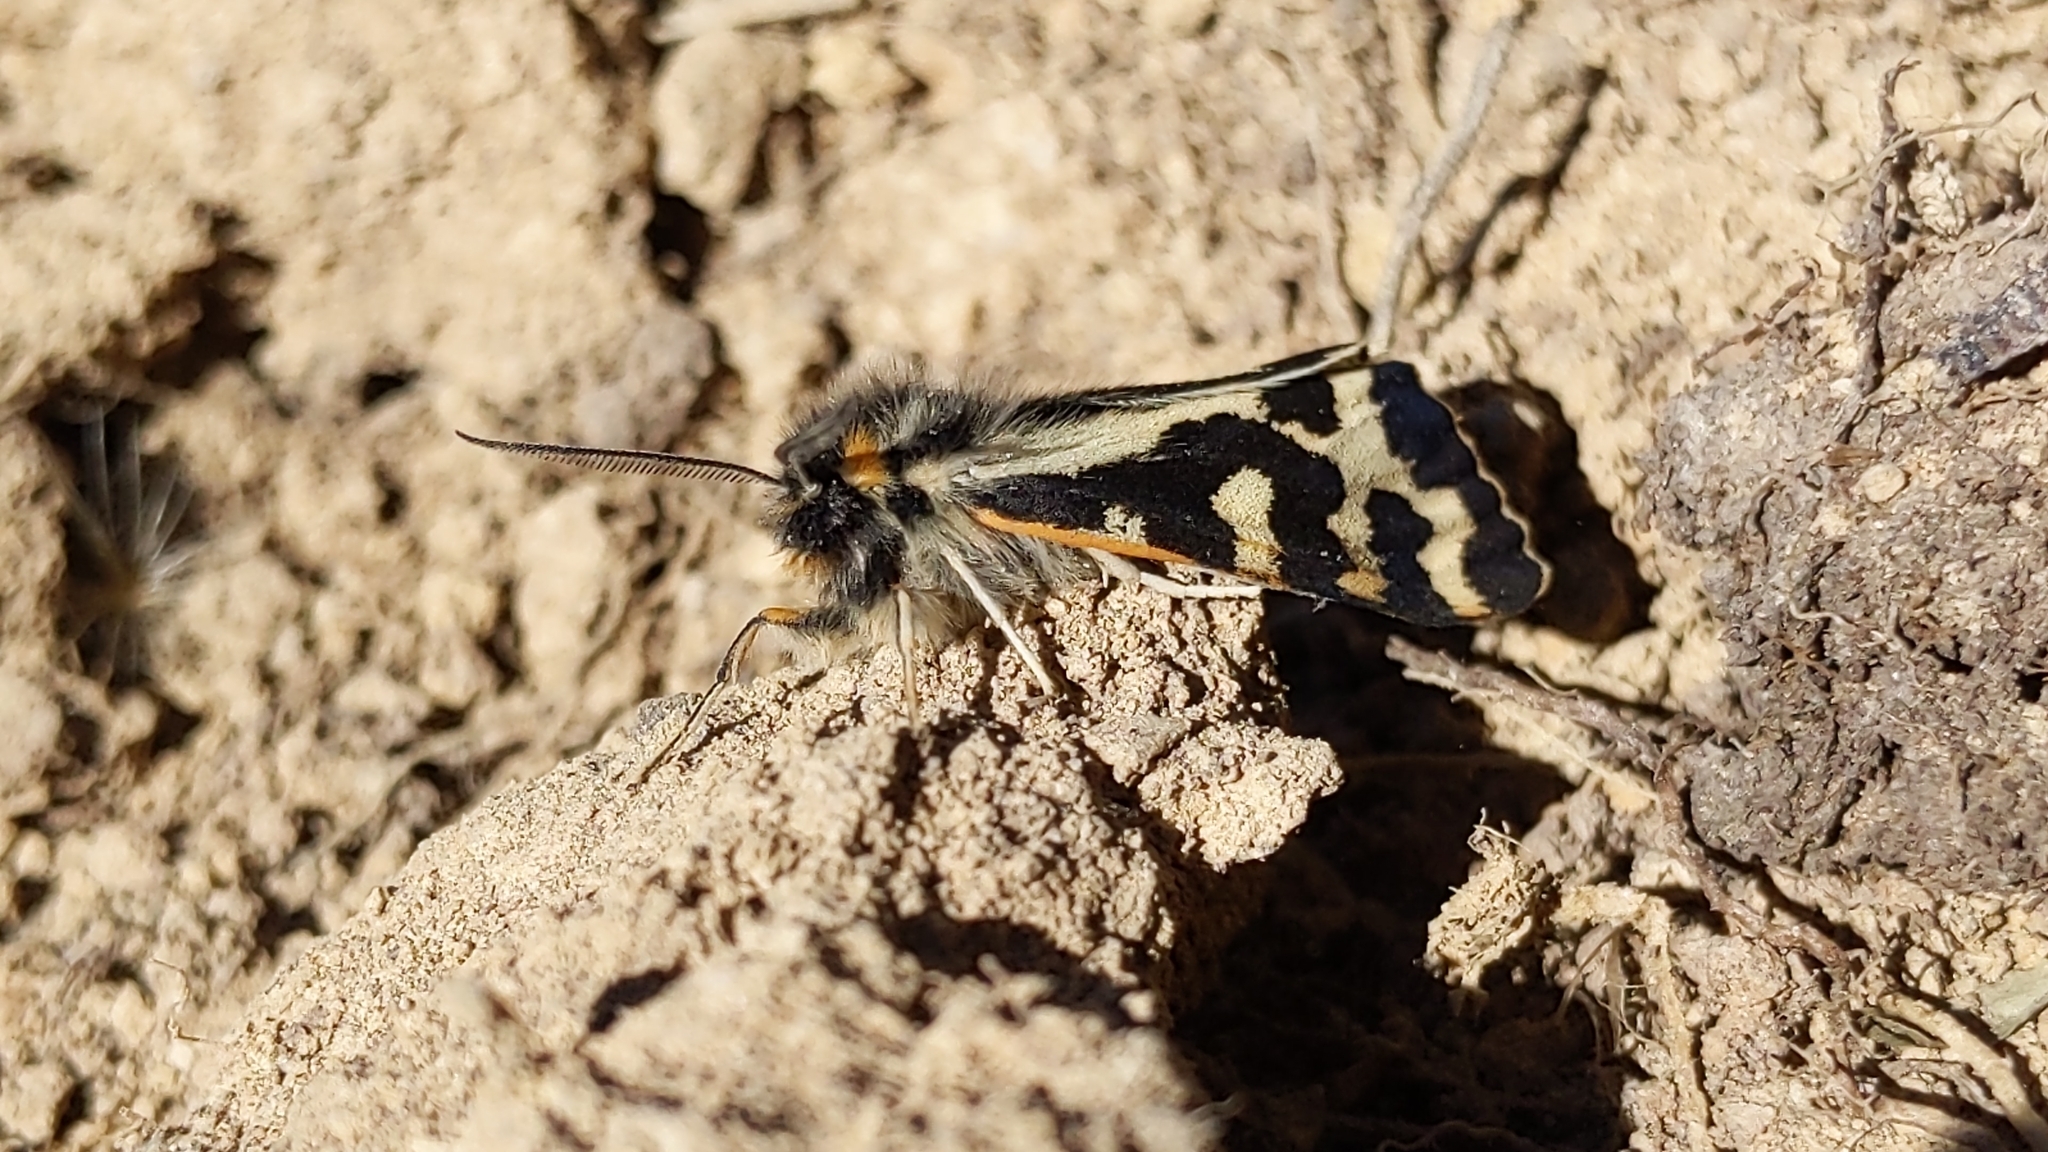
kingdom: Animalia
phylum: Arthropoda
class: Insecta
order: Lepidoptera
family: Erebidae
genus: Parasemia
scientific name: Parasemia plantaginis
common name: Wood tiger
